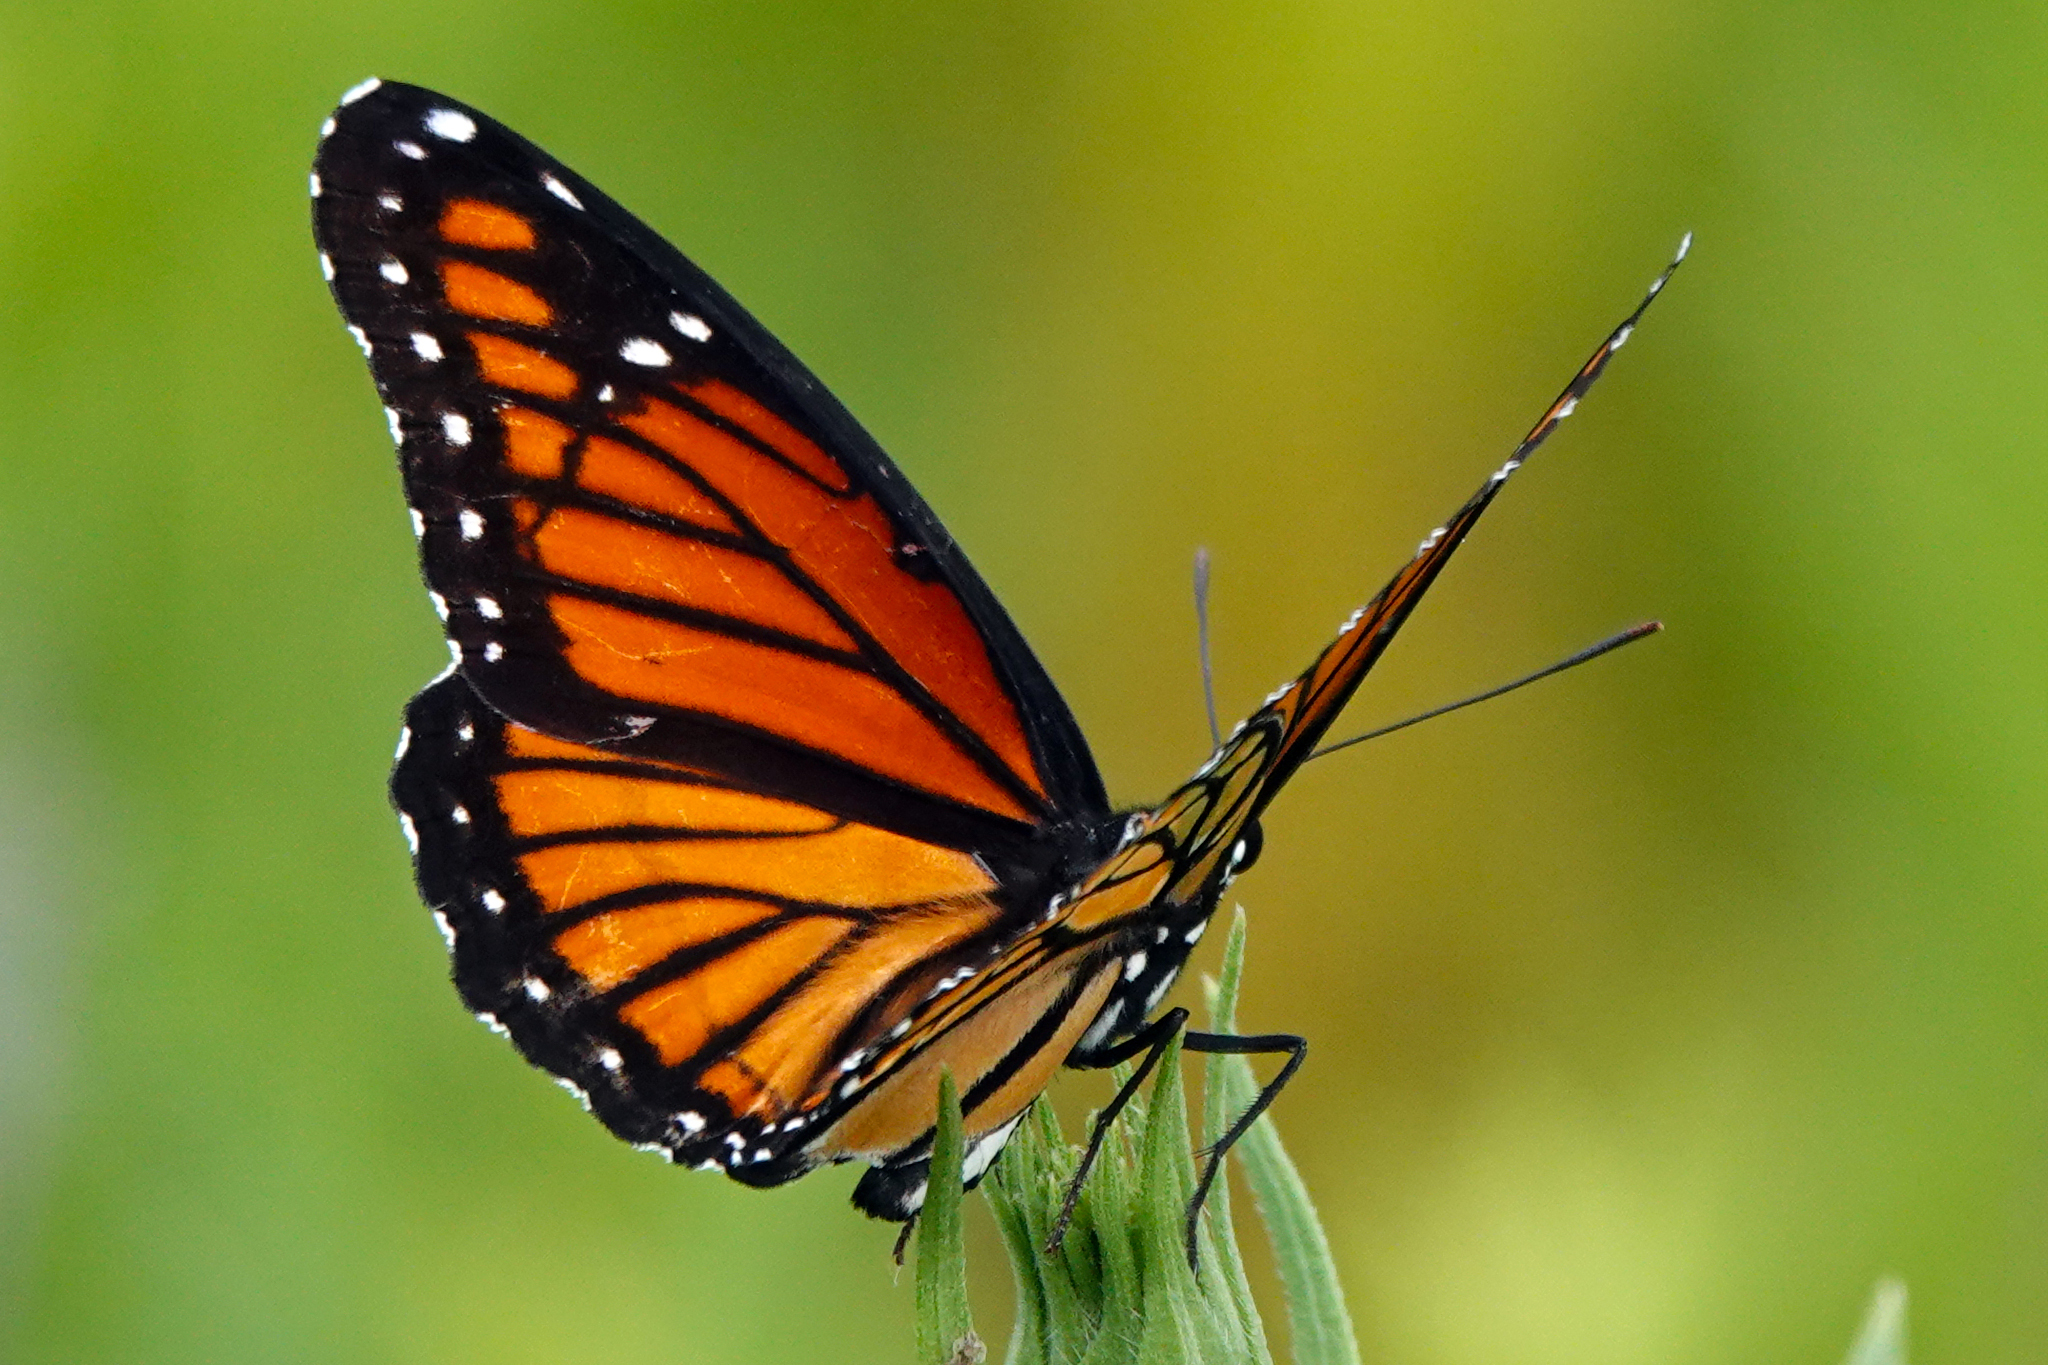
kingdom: Animalia
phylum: Arthropoda
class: Insecta
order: Lepidoptera
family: Nymphalidae
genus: Limenitis
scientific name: Limenitis archippus
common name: Viceroy
